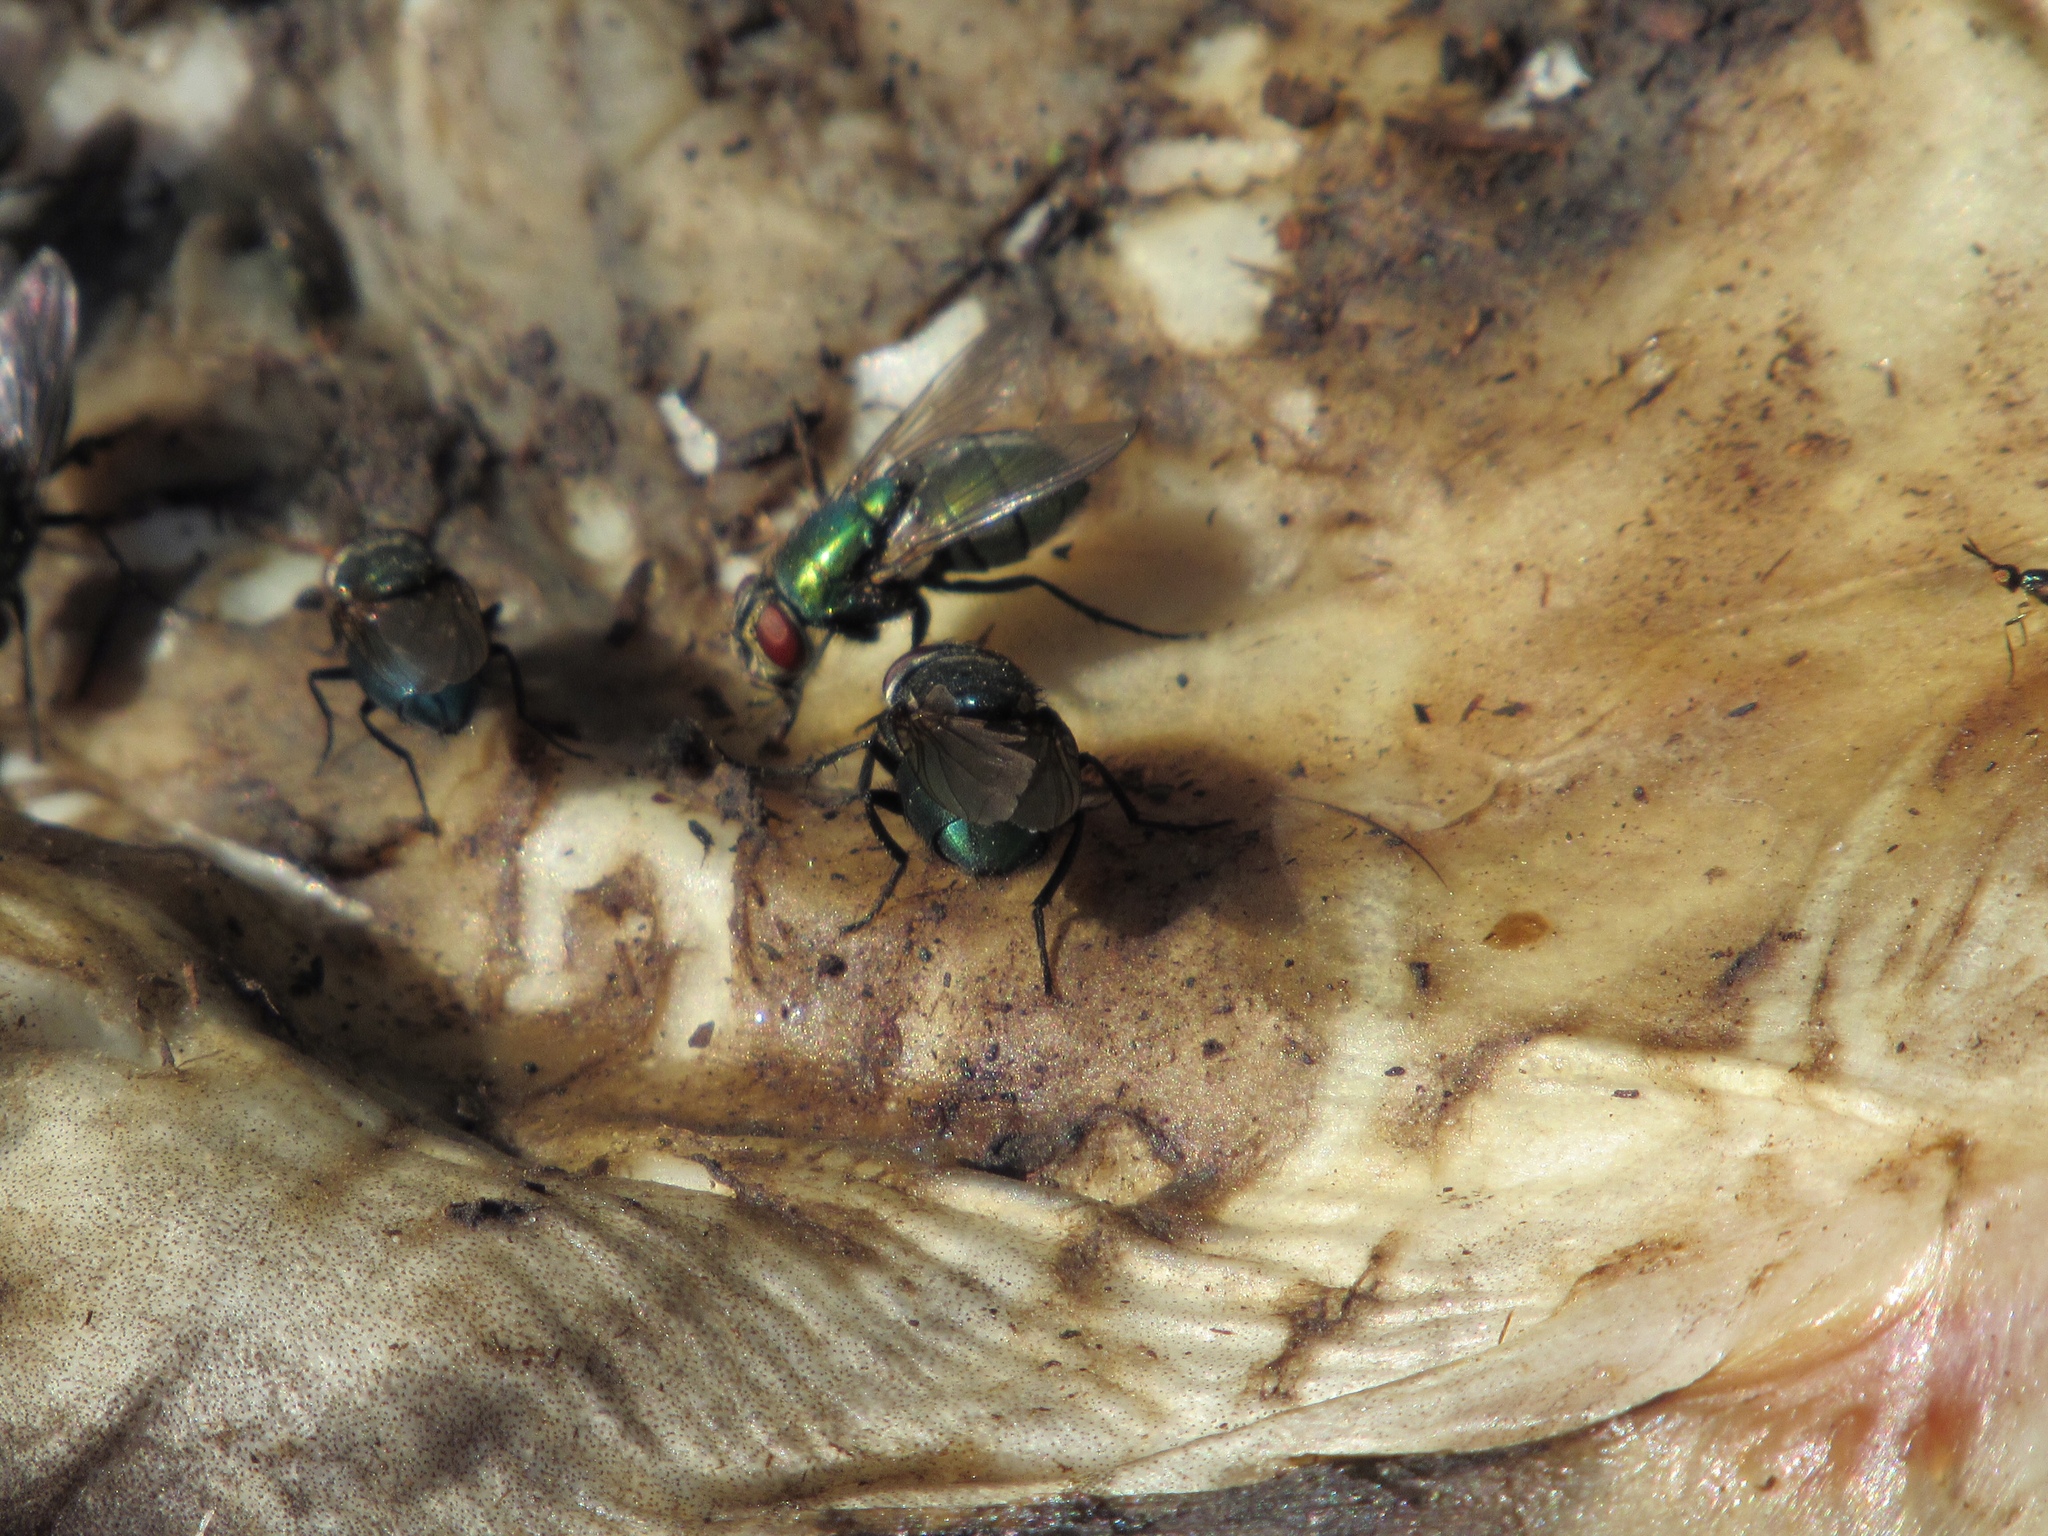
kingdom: Animalia
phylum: Arthropoda
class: Insecta
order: Diptera
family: Calliphoridae
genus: Phormia
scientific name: Phormia regina
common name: Black blow fly
